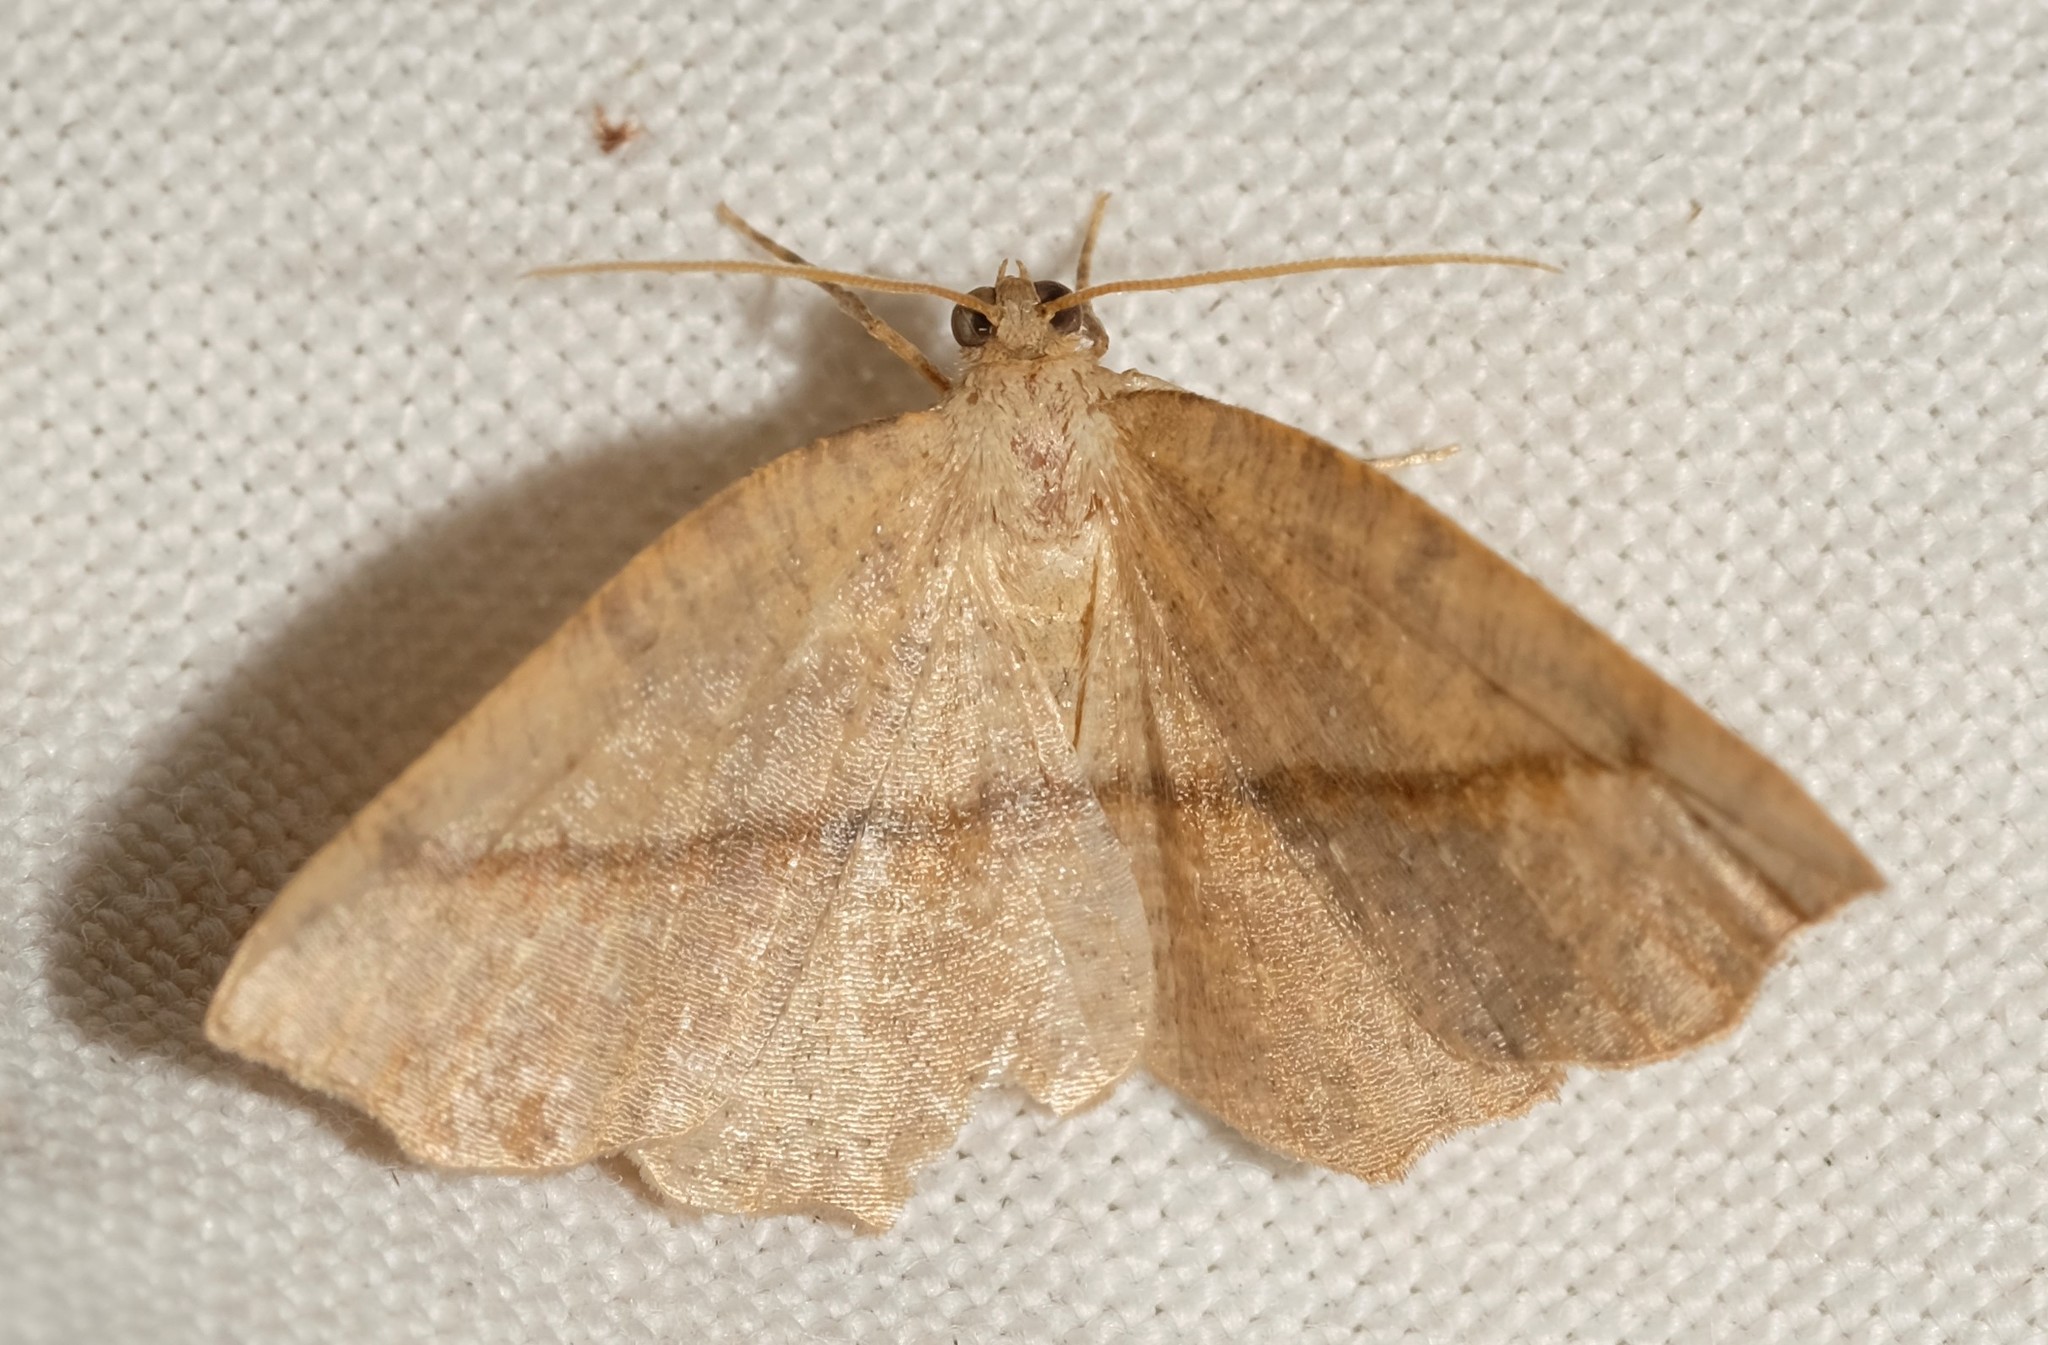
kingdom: Animalia
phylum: Arthropoda
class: Insecta
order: Lepidoptera
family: Geometridae
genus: Planolocha
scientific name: Planolocha obliquata
